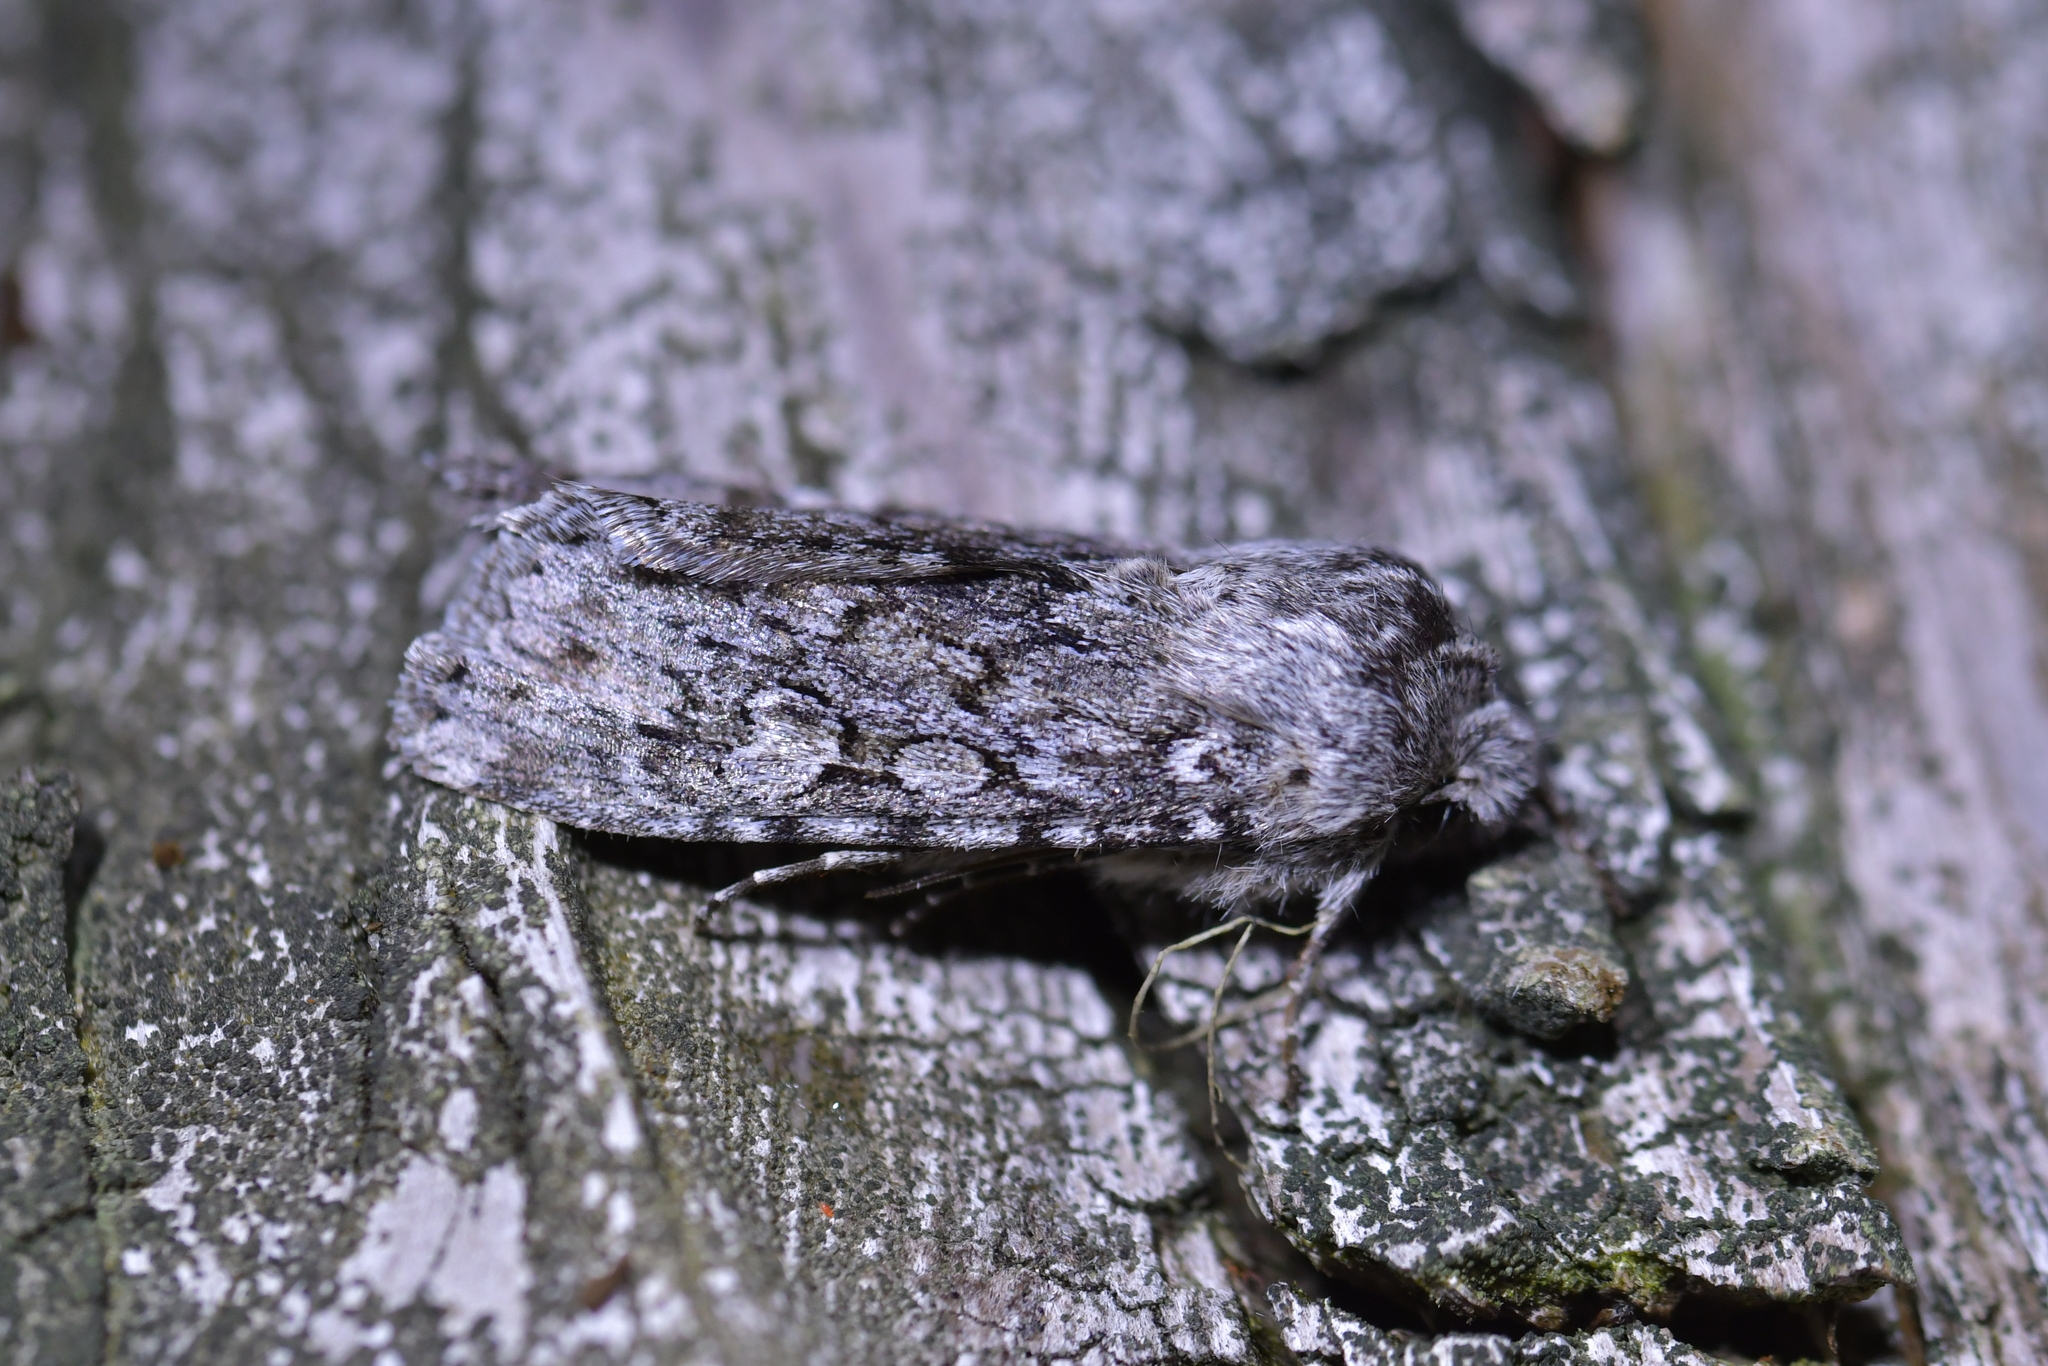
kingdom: Animalia
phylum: Arthropoda
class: Insecta
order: Lepidoptera
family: Noctuidae
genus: Physetica
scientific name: Physetica cucullina
